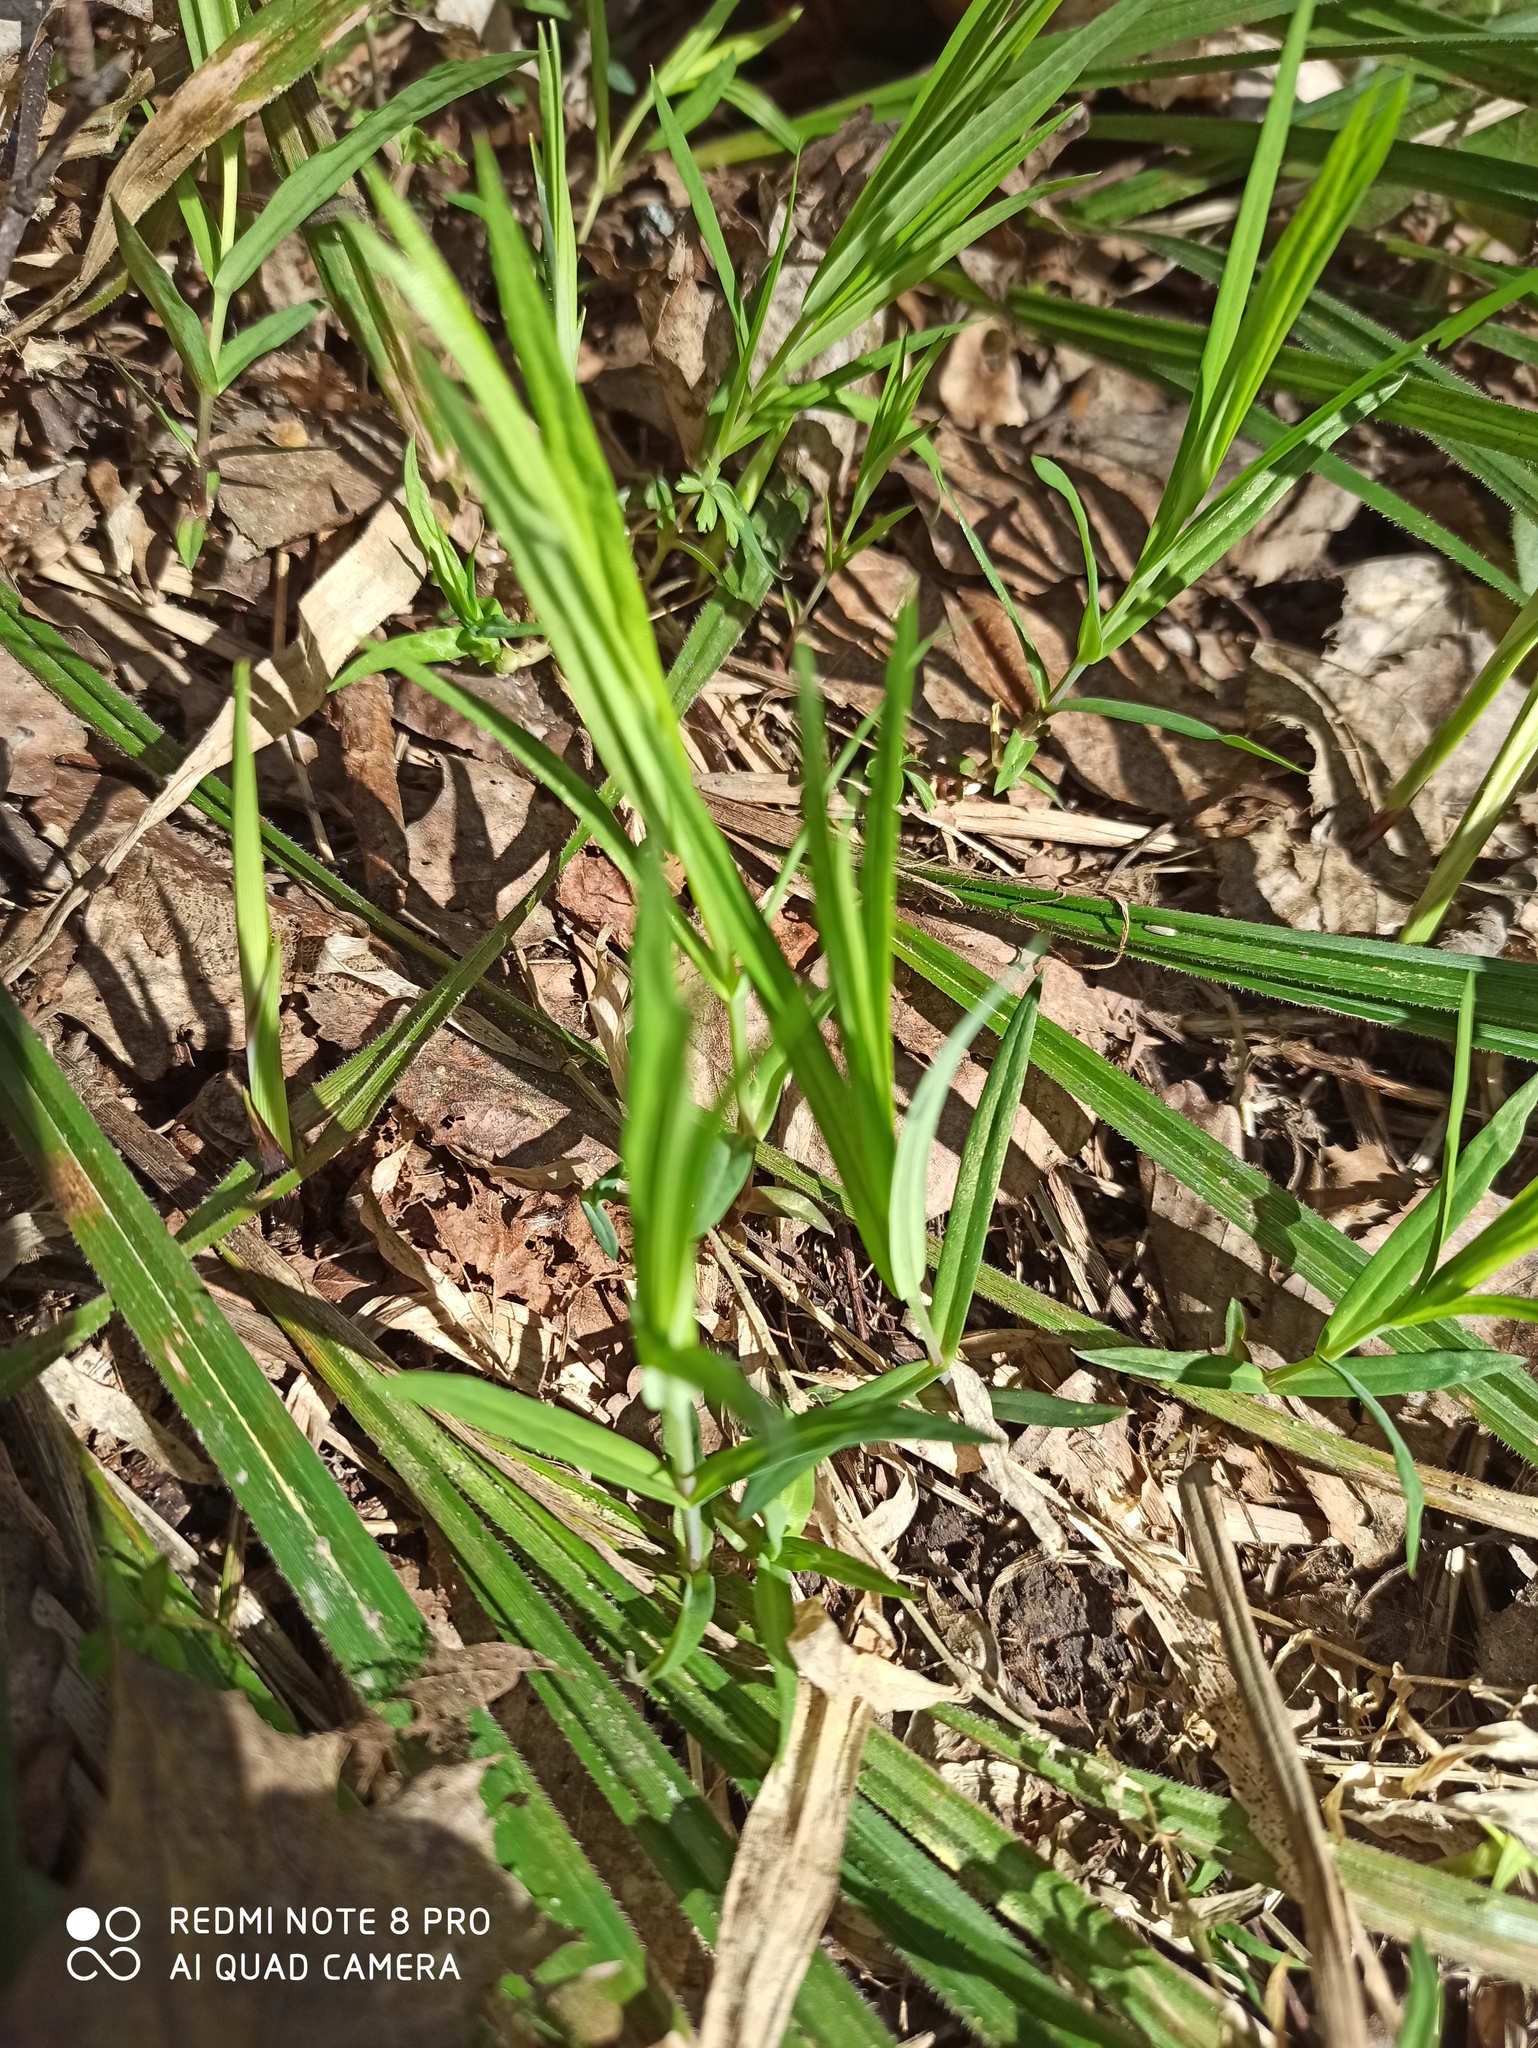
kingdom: Plantae
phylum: Tracheophyta
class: Magnoliopsida
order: Caryophyllales
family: Caryophyllaceae
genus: Rabelera
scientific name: Rabelera holostea
